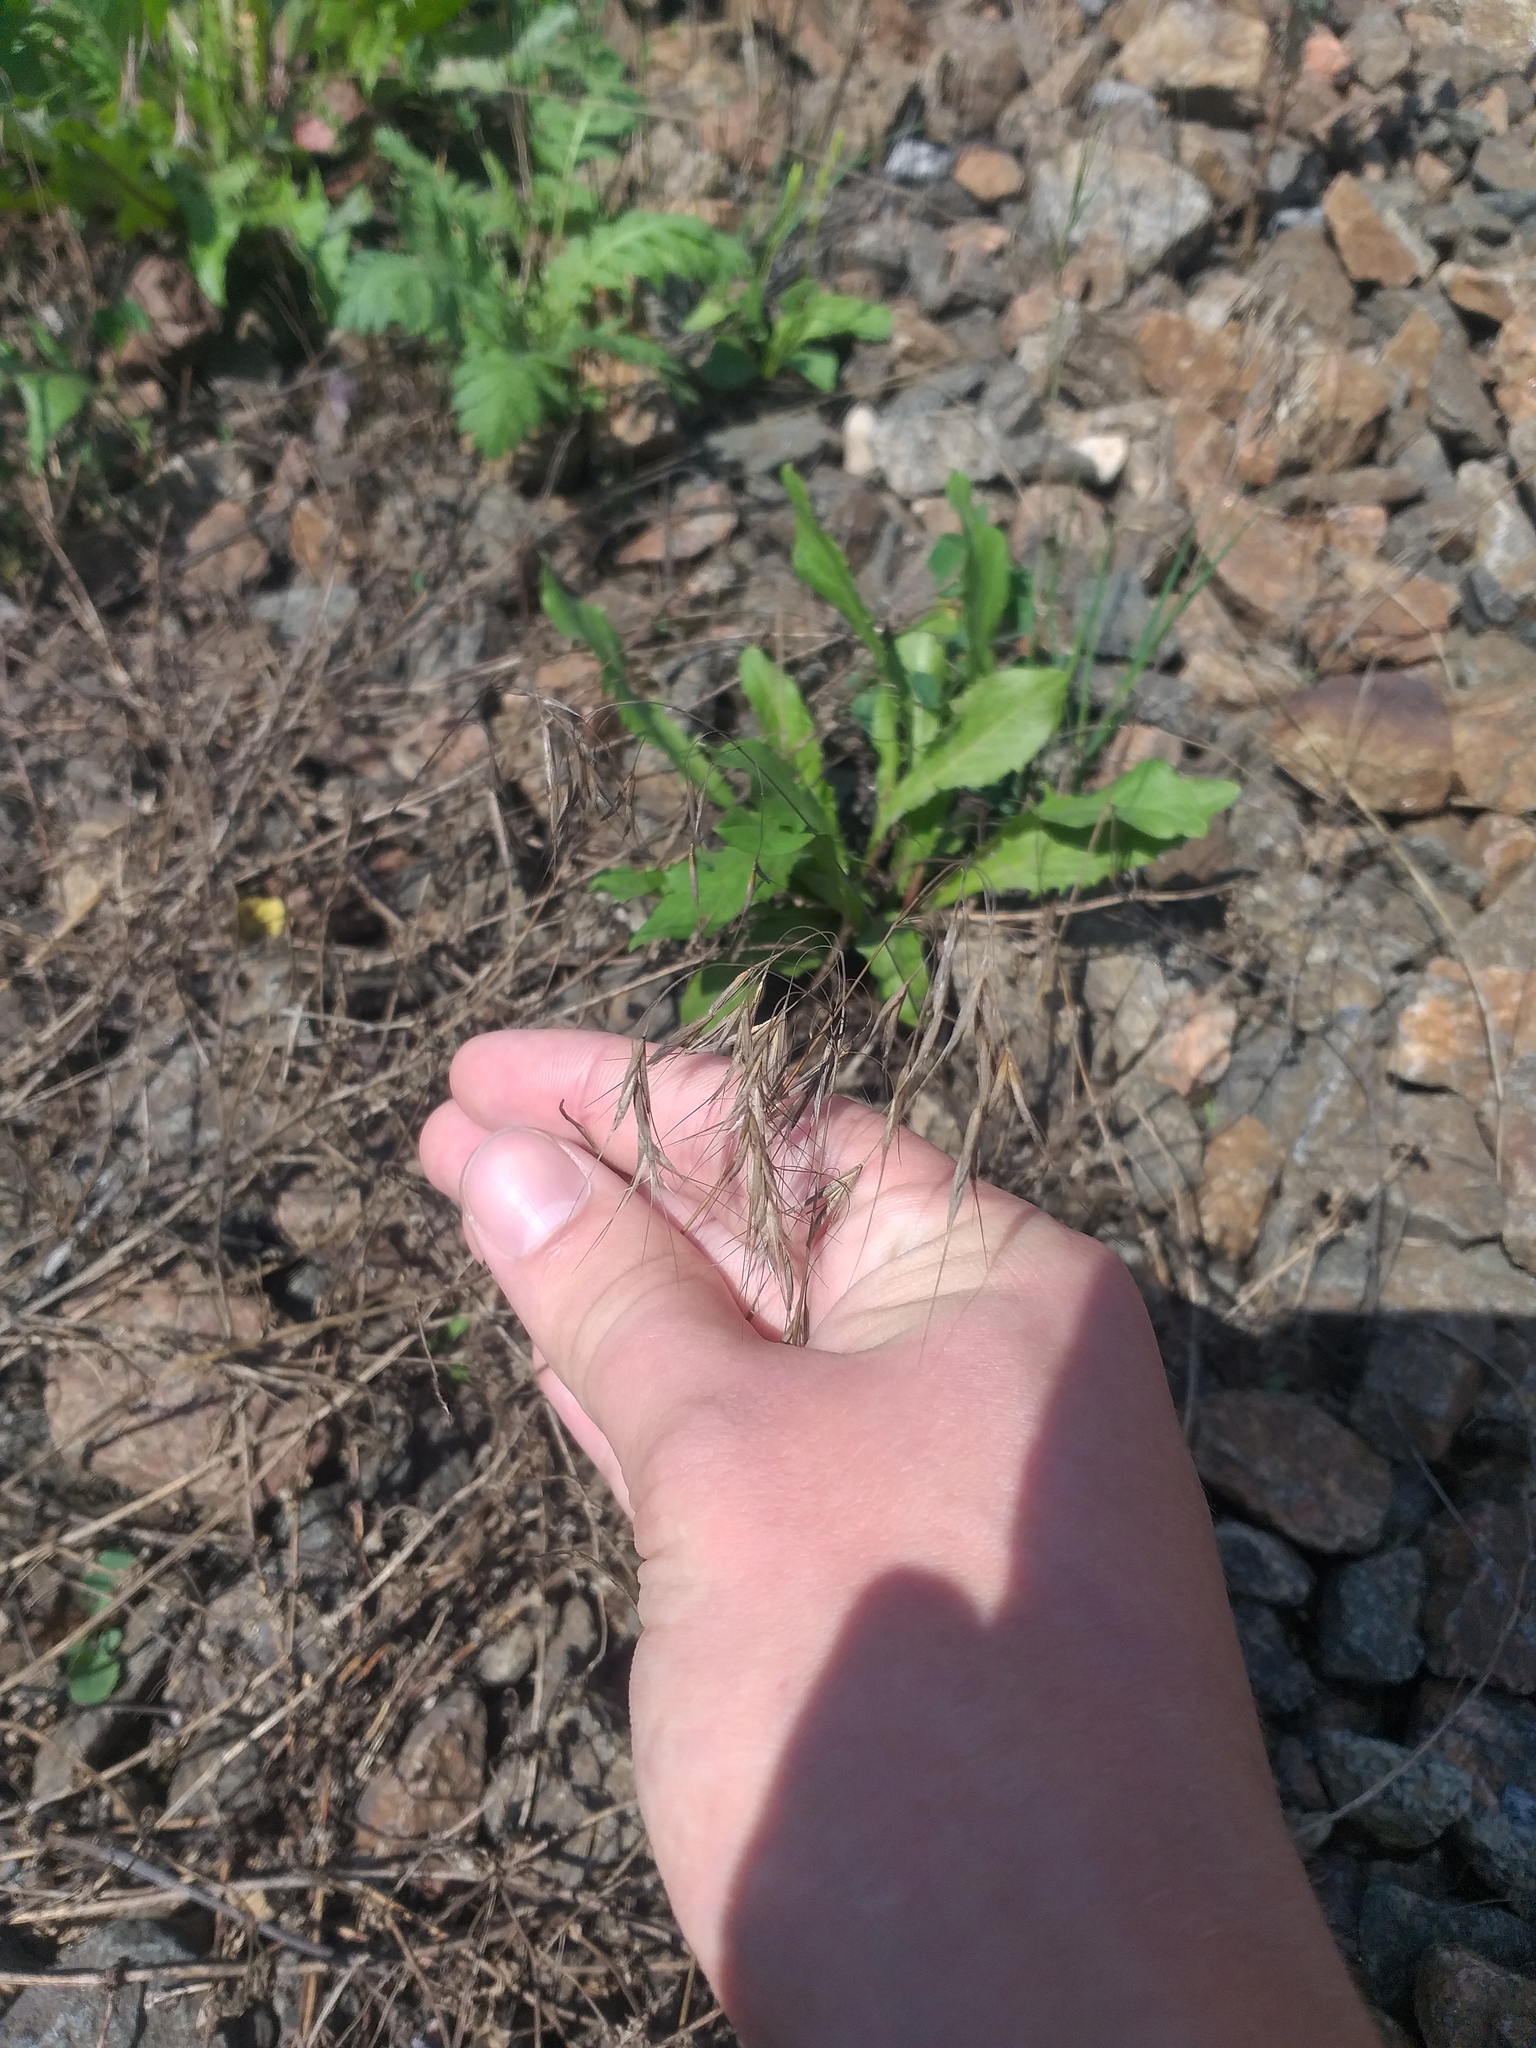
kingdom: Plantae
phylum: Tracheophyta
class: Liliopsida
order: Poales
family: Poaceae
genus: Bromus
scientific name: Bromus tectorum
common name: Cheatgrass
